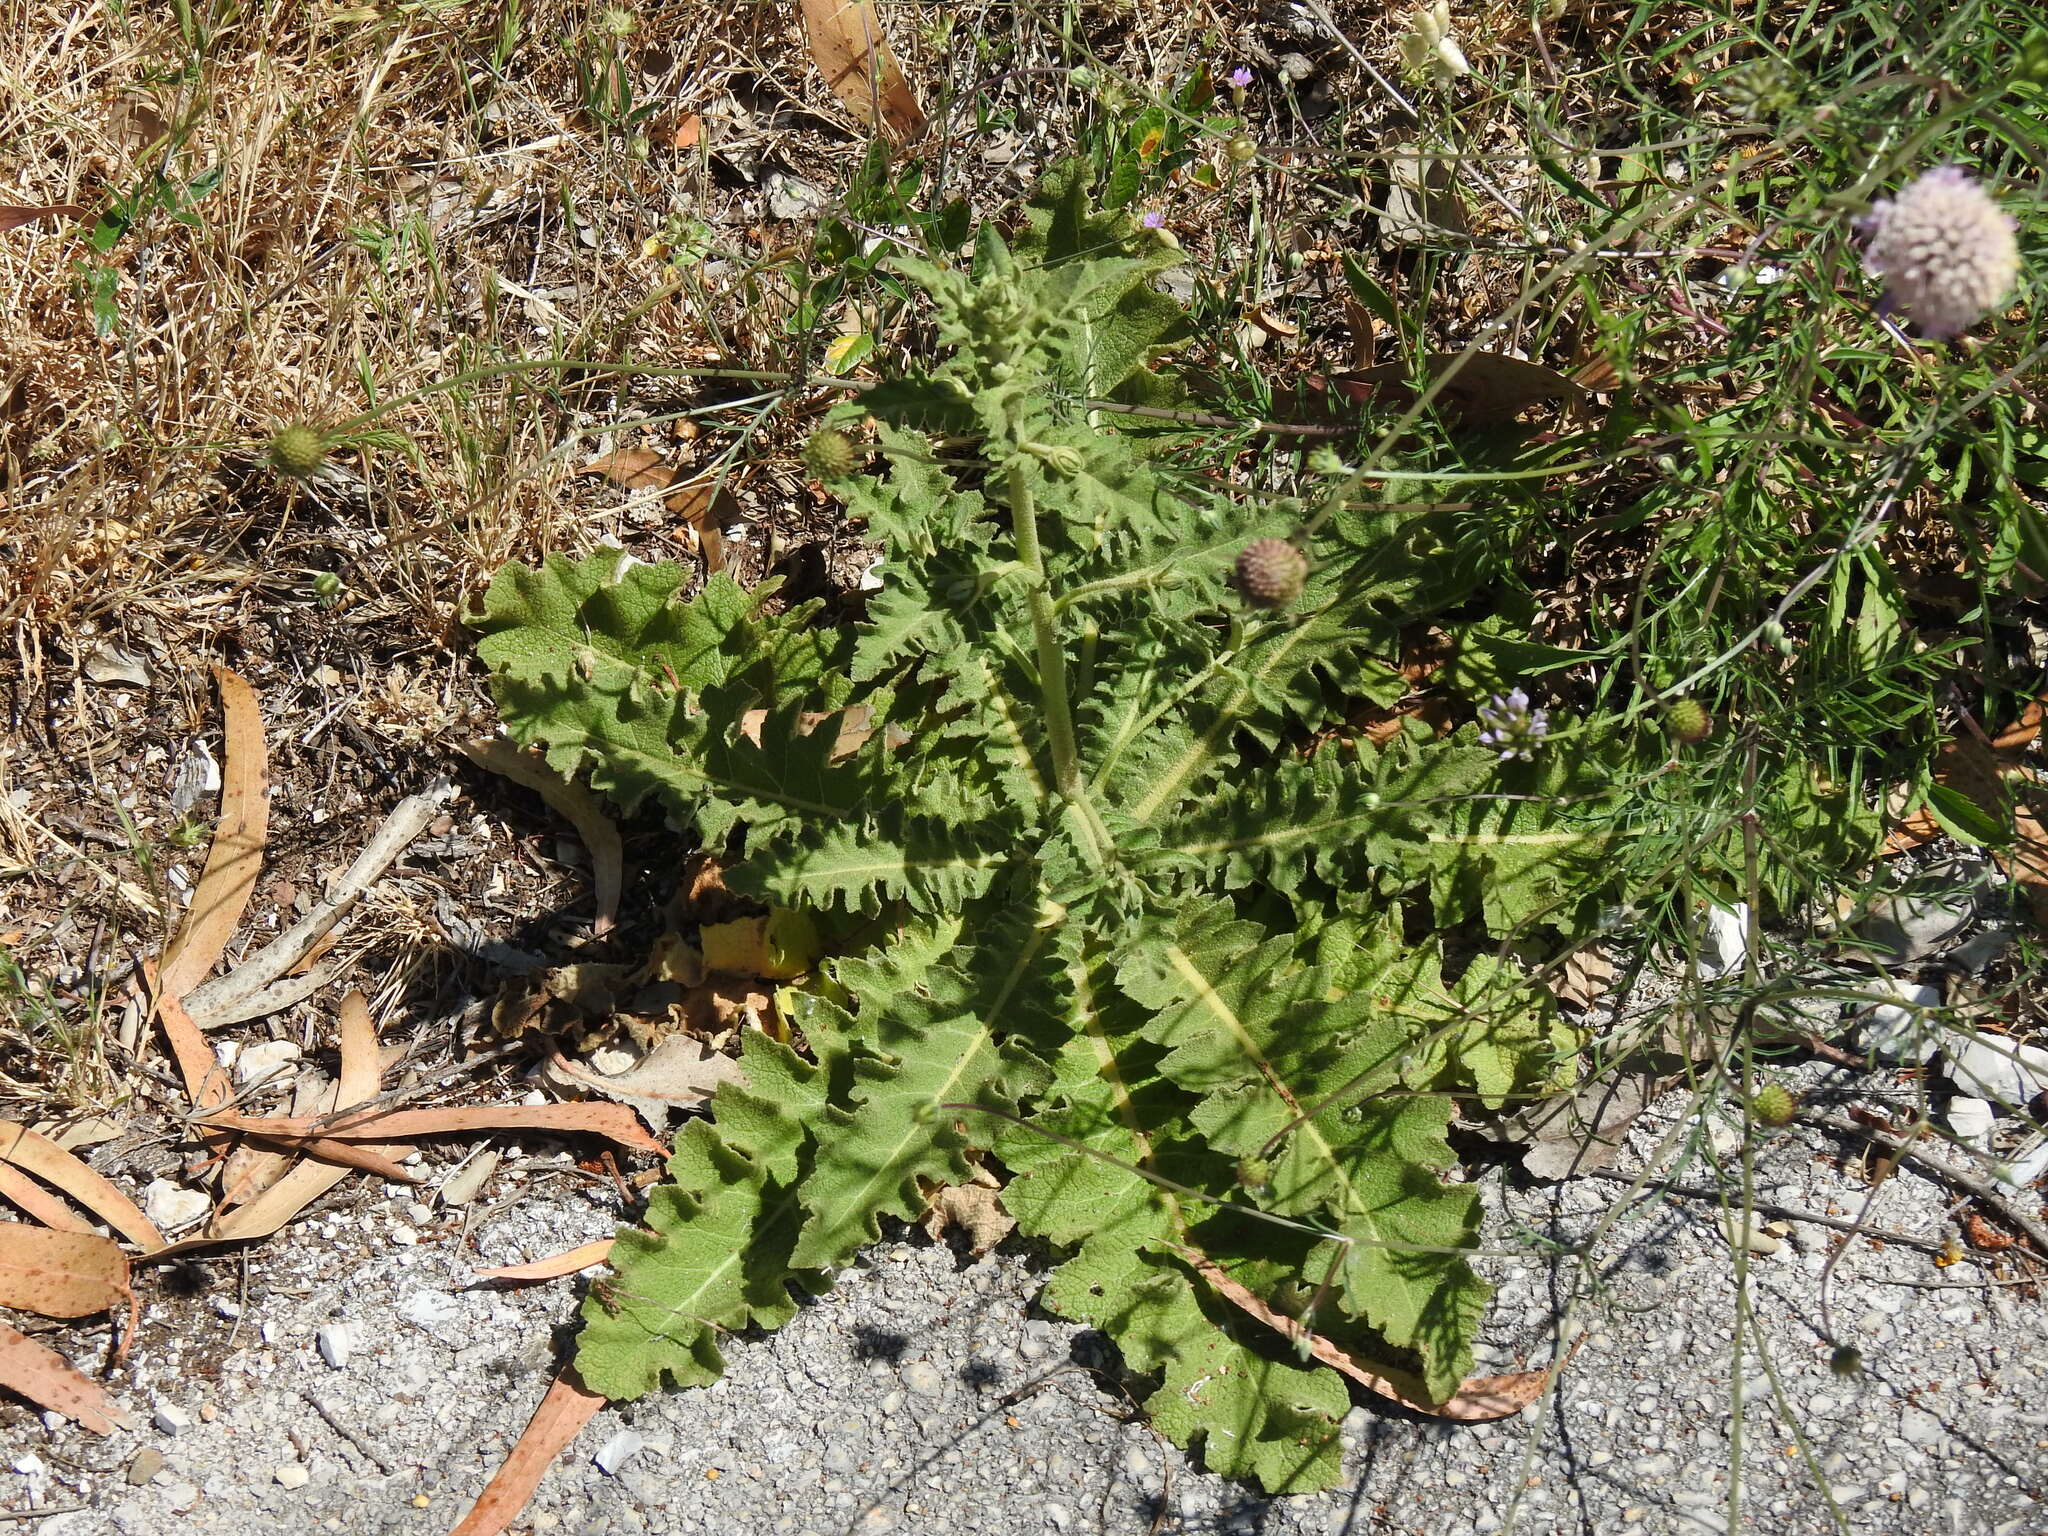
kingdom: Plantae
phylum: Tracheophyta
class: Magnoliopsida
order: Lamiales
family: Scrophulariaceae
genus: Verbascum
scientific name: Verbascum sinuatum
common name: Wavyleaf mullein
